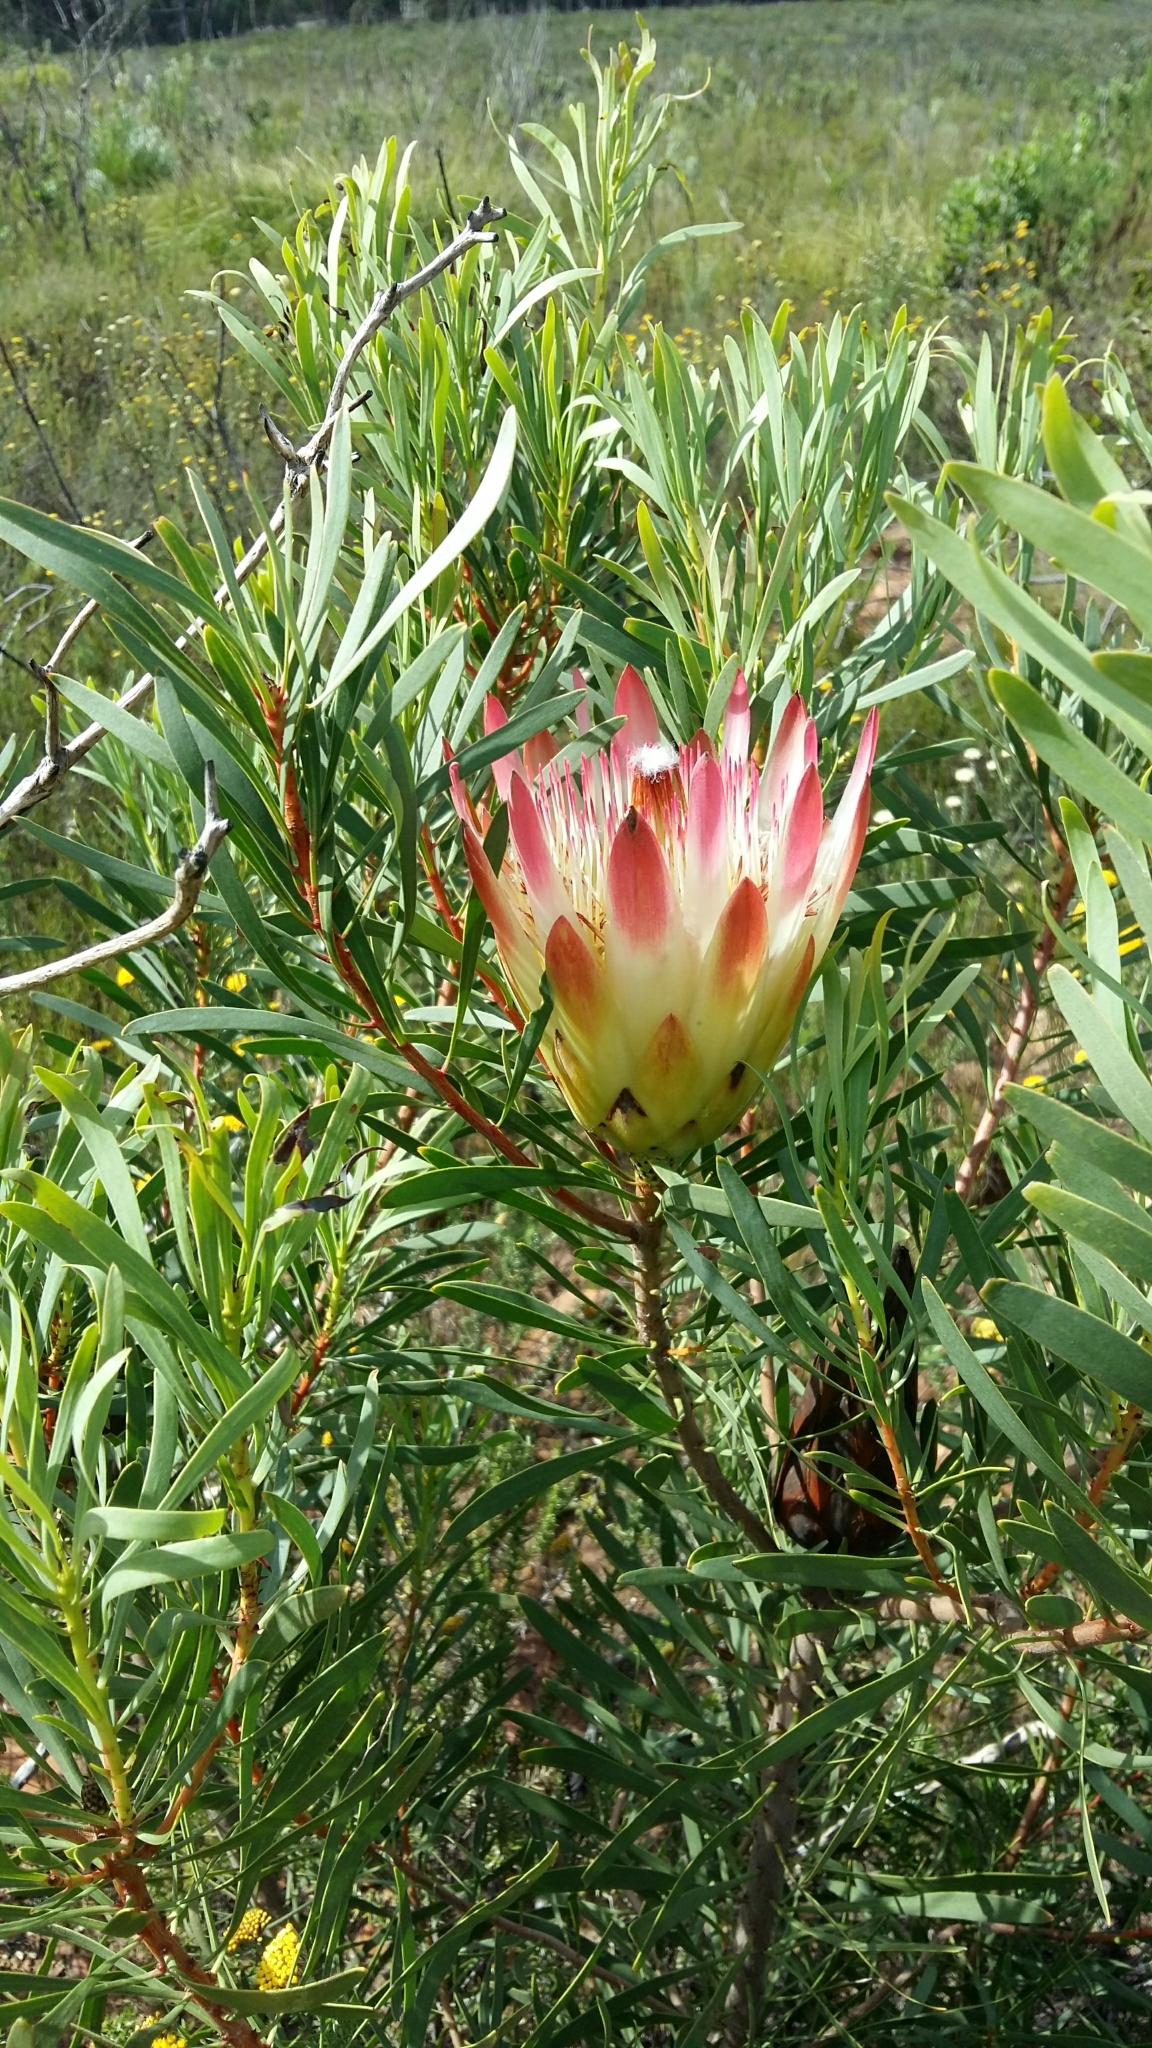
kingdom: Plantae
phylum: Tracheophyta
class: Magnoliopsida
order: Proteales
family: Proteaceae
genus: Protea
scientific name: Protea repens
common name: Sugarbush
